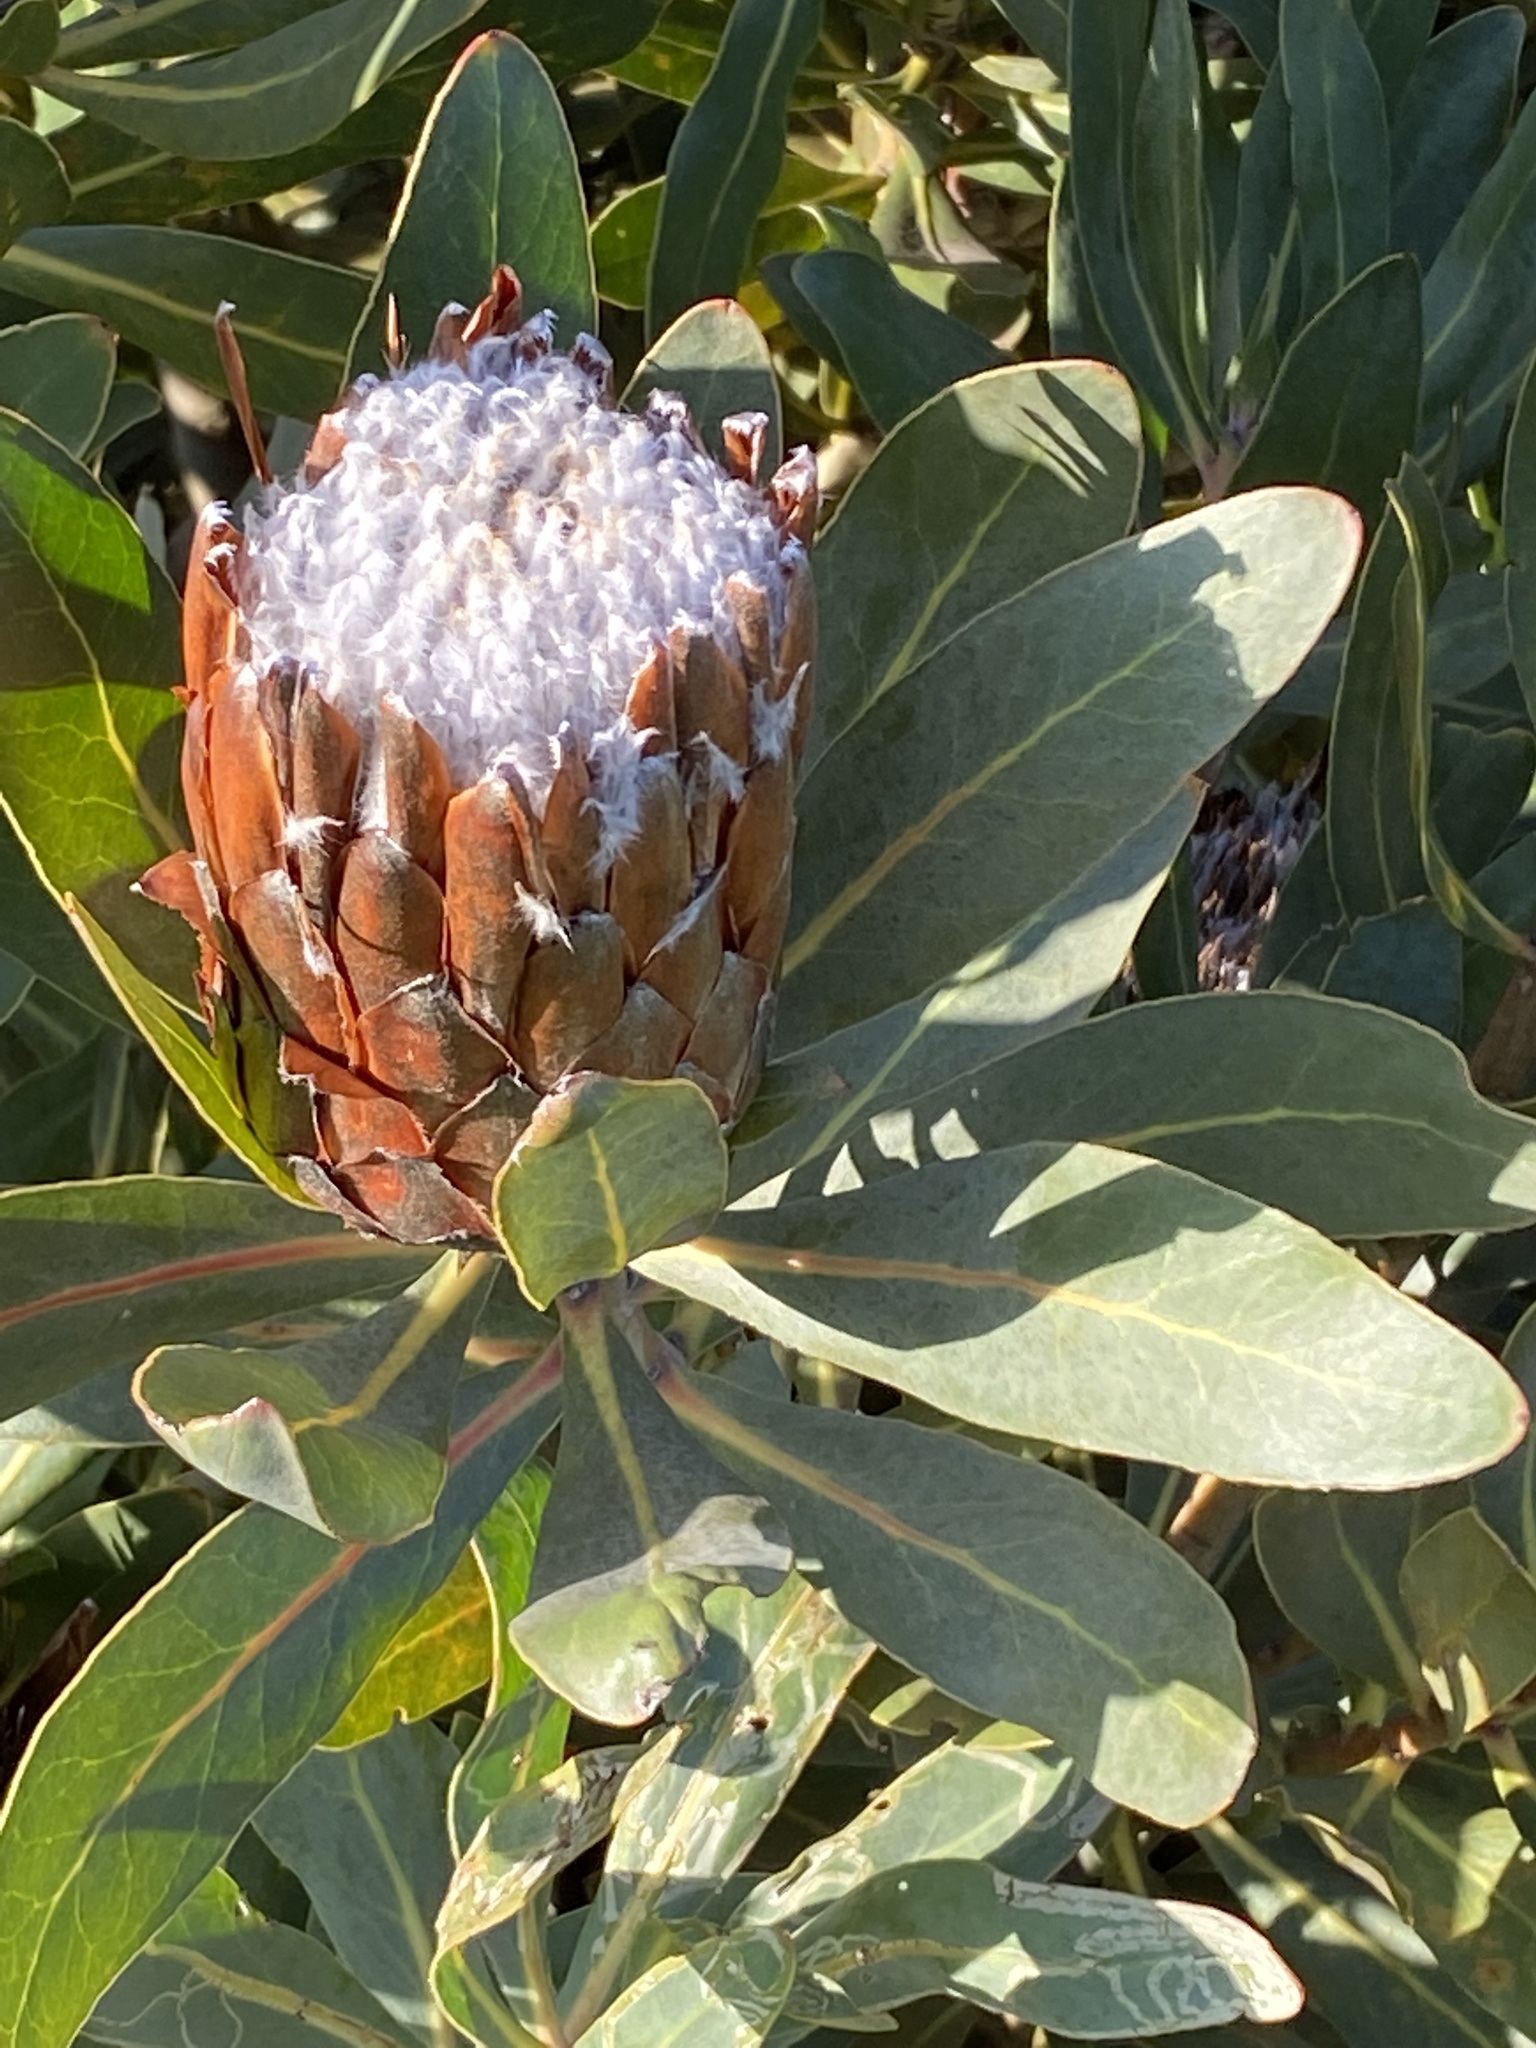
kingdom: Plantae
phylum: Tracheophyta
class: Magnoliopsida
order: Proteales
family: Proteaceae
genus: Protea
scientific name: Protea
